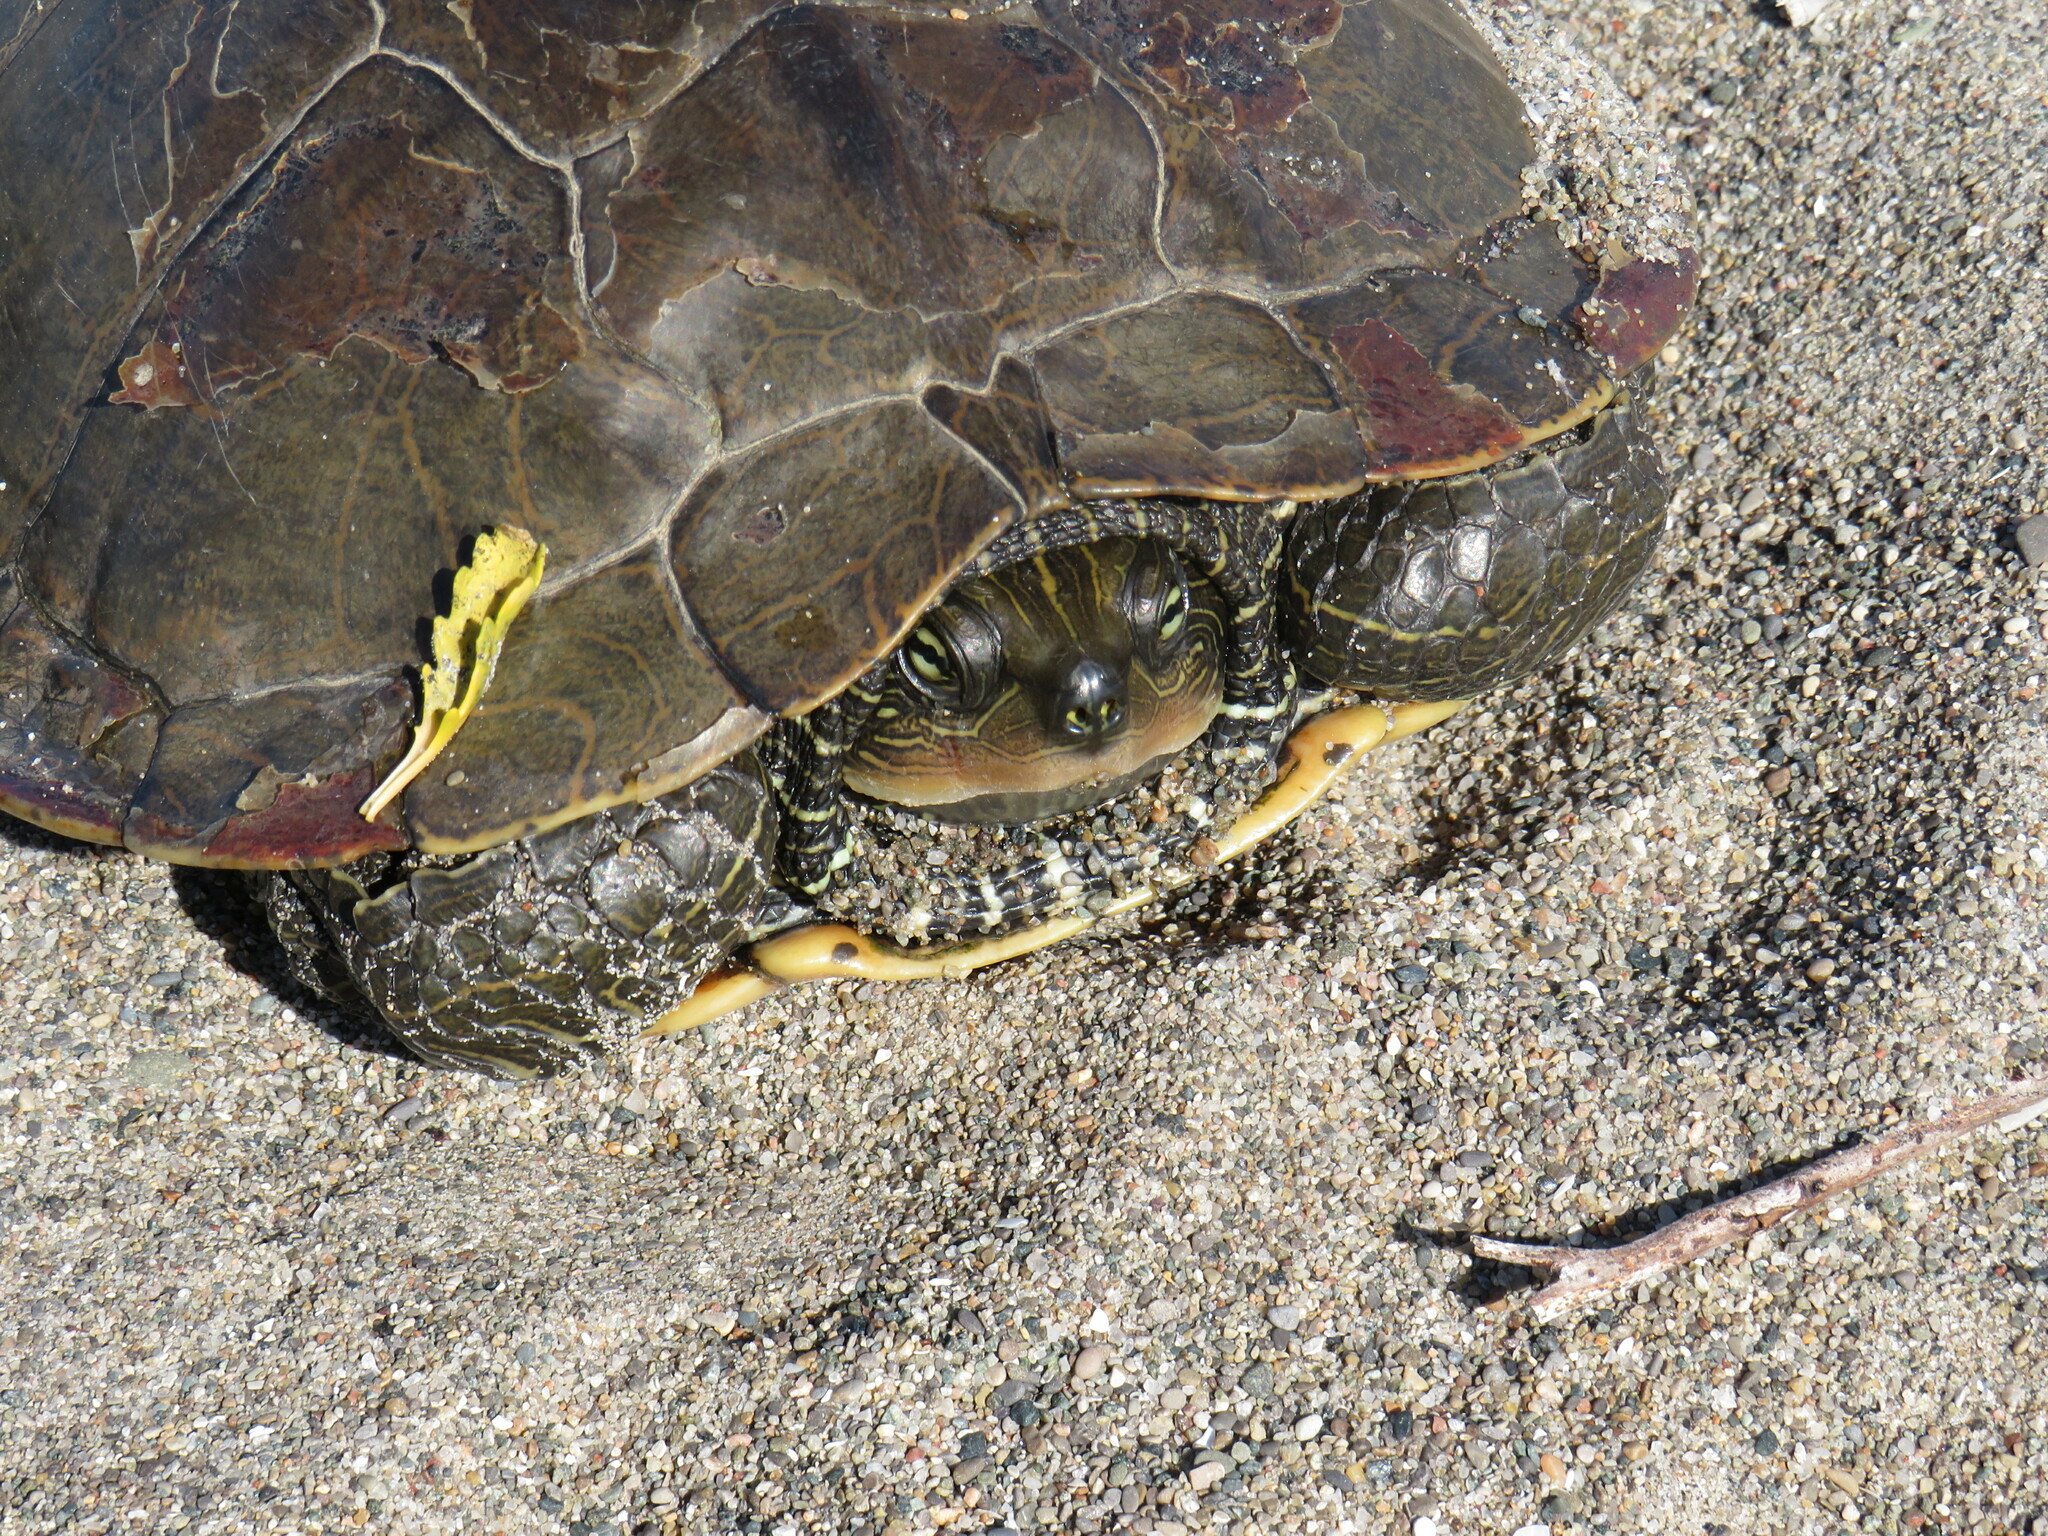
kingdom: Animalia
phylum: Chordata
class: Testudines
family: Emydidae
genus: Graptemys
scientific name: Graptemys geographica
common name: Common map turtle
